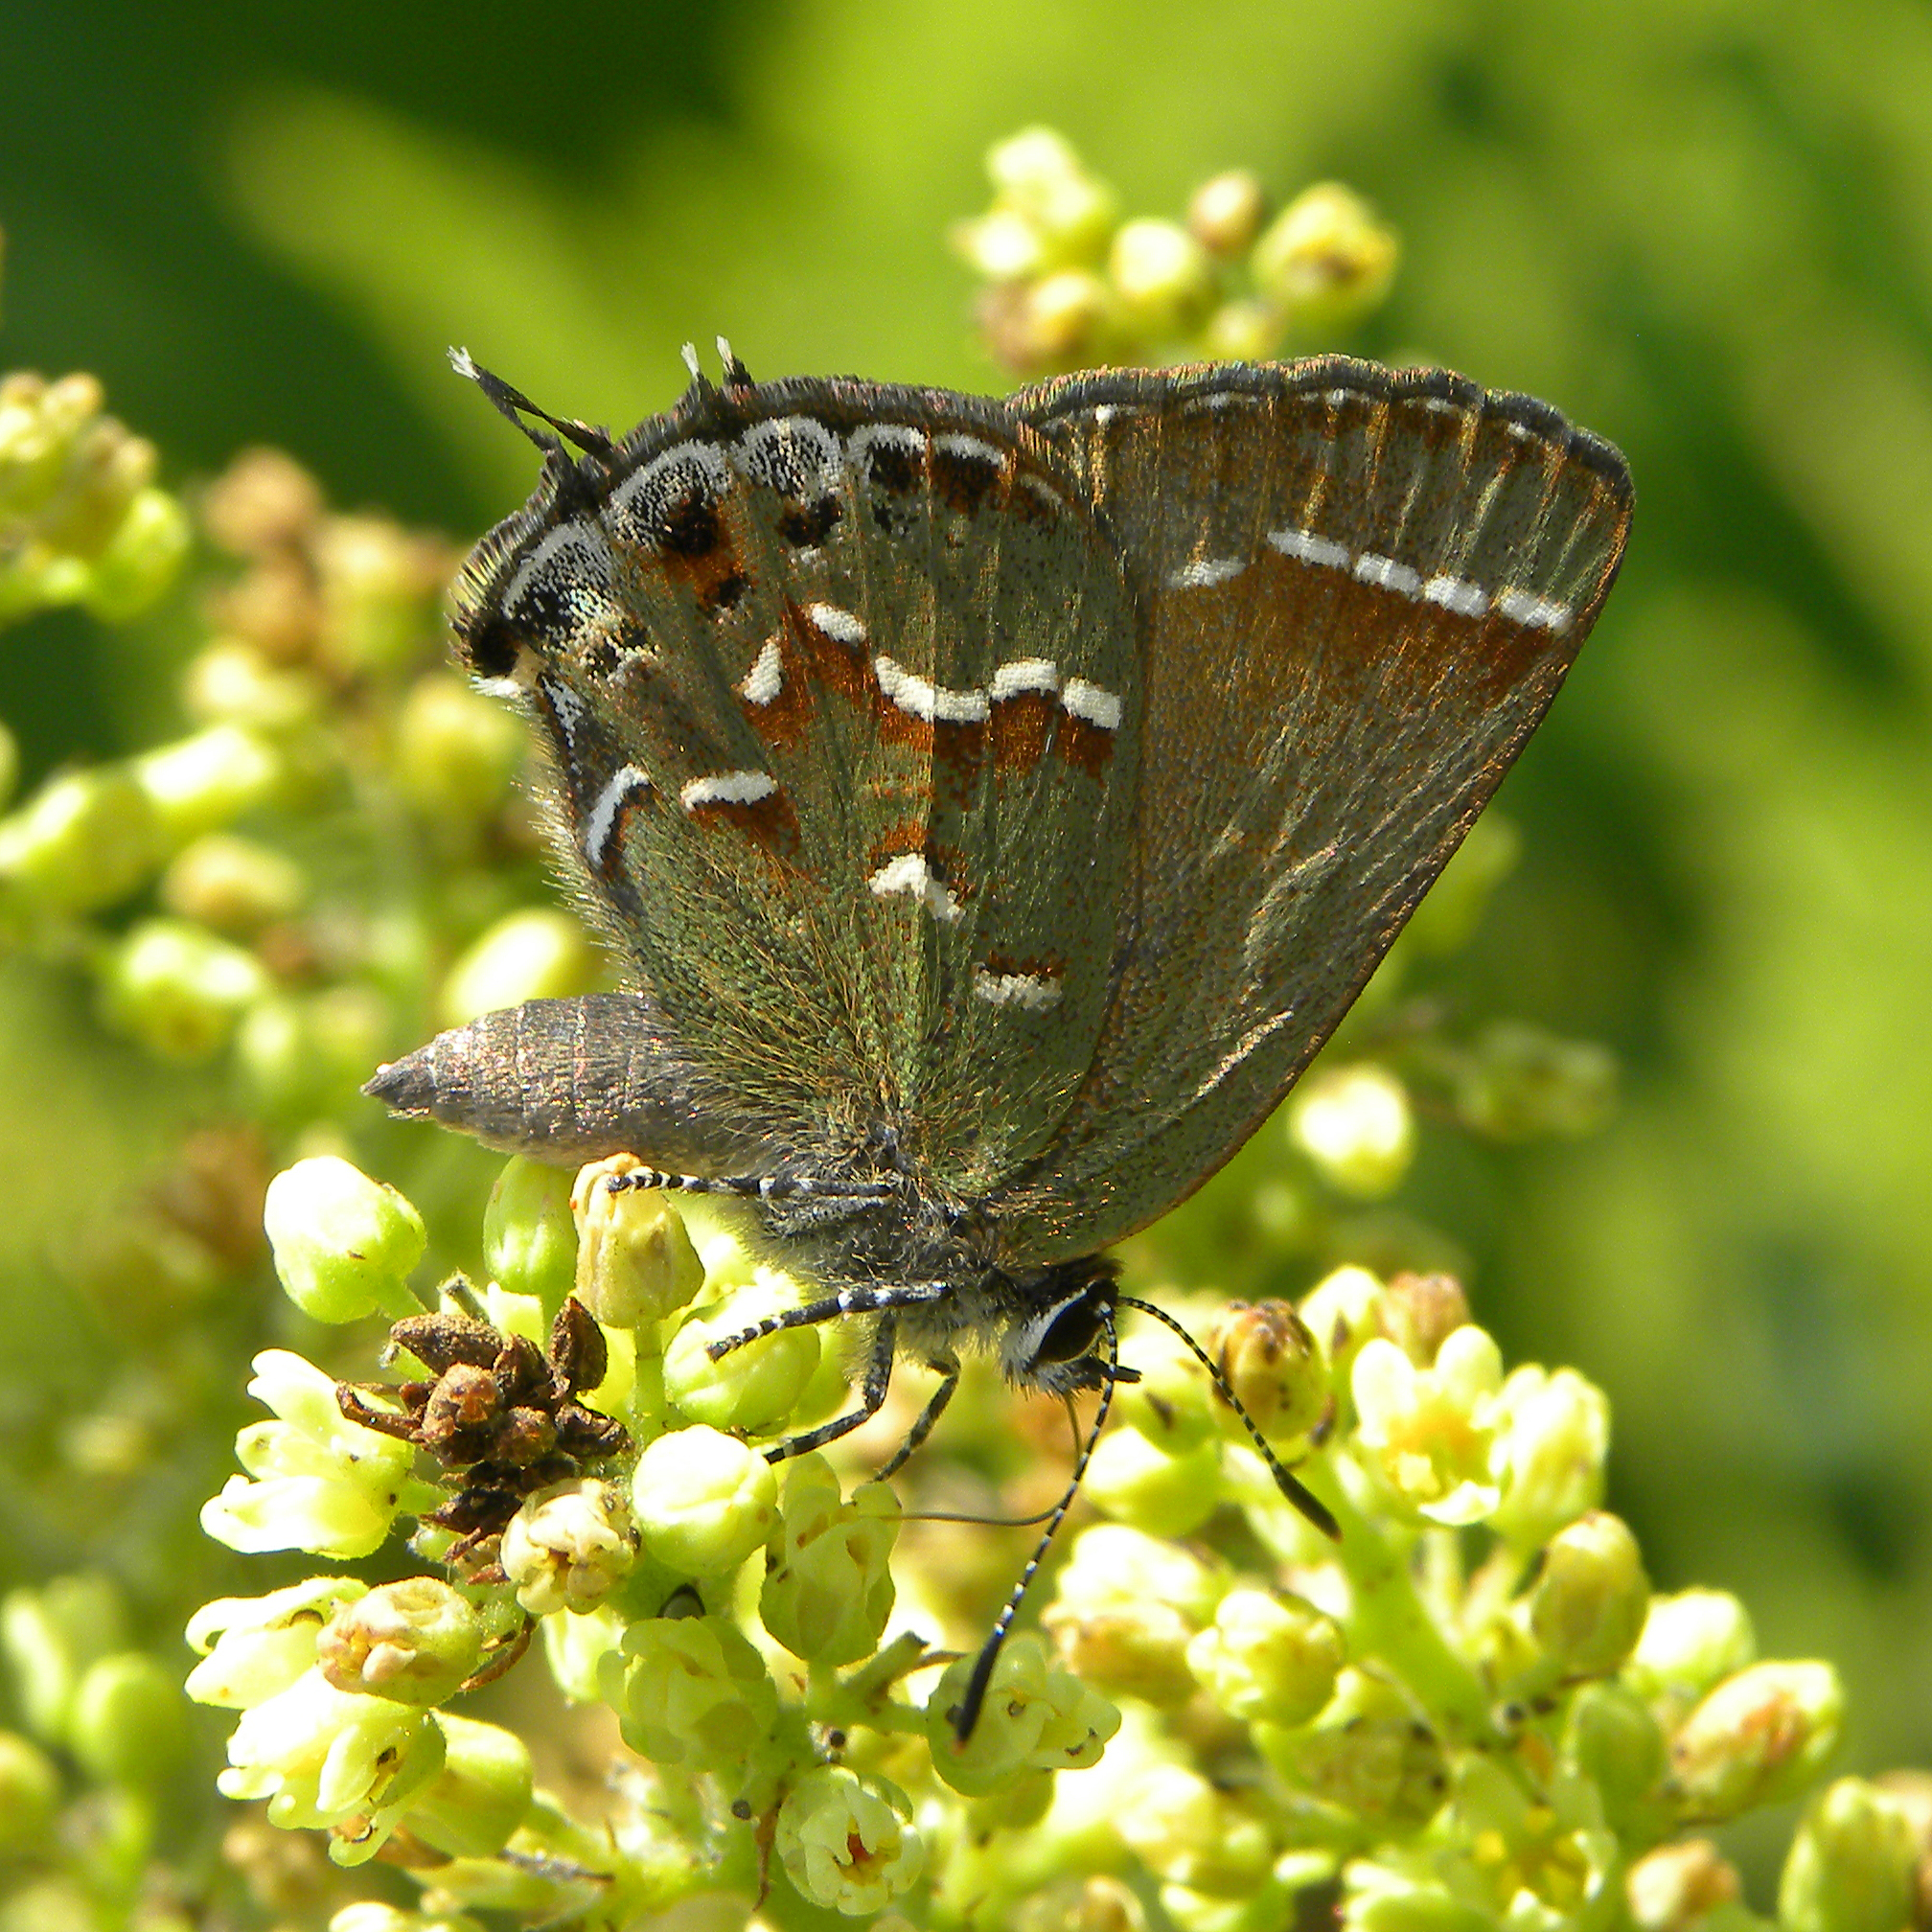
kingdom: Animalia
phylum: Arthropoda
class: Insecta
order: Lepidoptera
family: Lycaenidae
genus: Mitoura
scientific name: Mitoura gryneus
